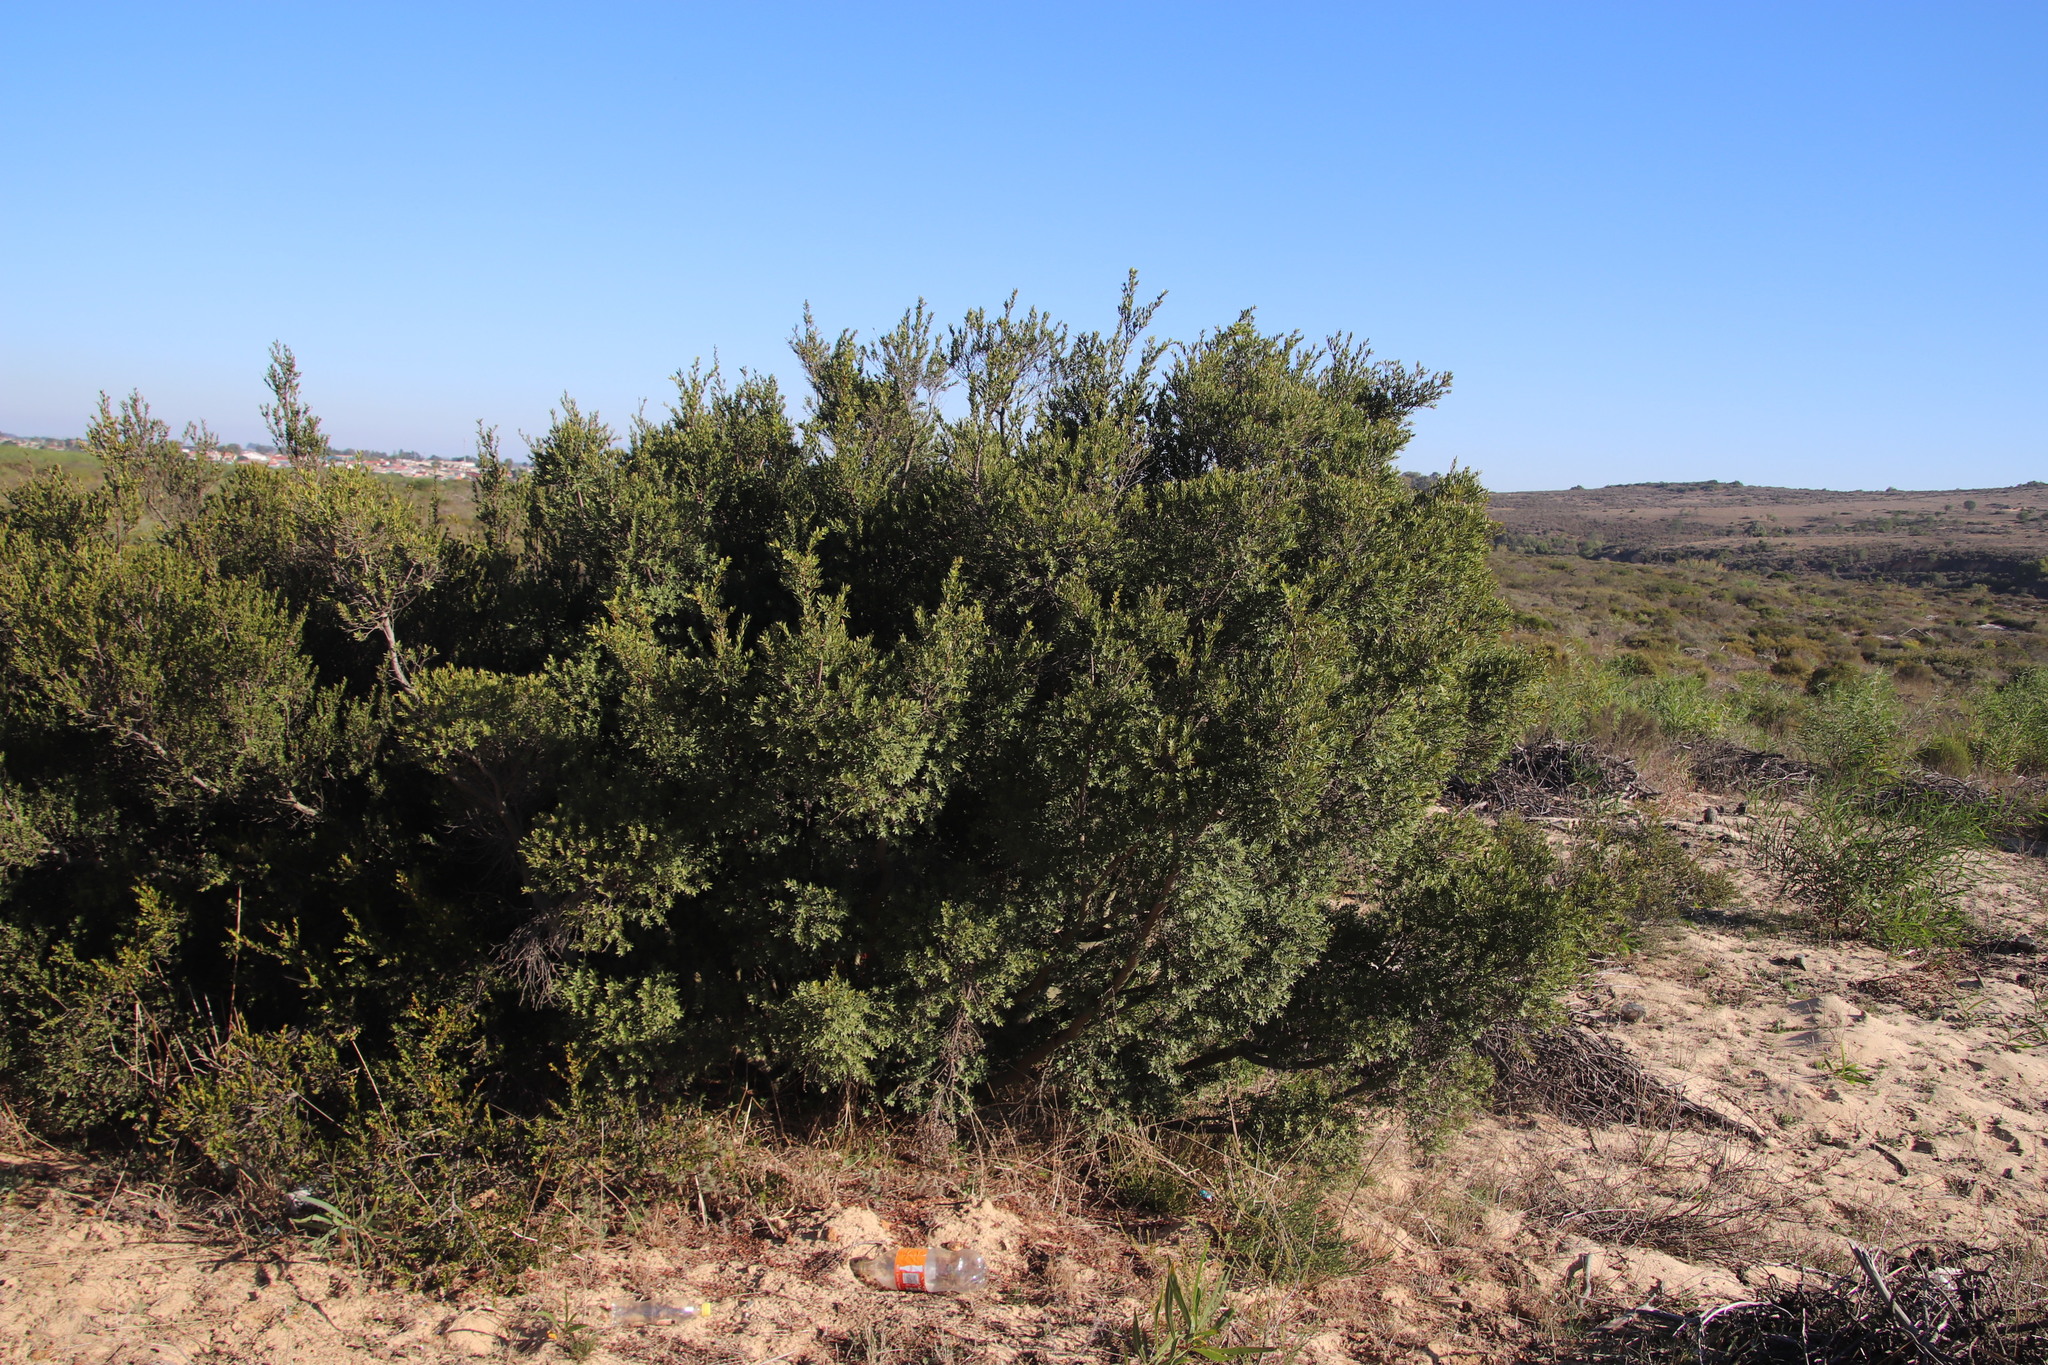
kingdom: Plantae
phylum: Tracheophyta
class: Magnoliopsida
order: Ericales
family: Ebenaceae
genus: Euclea
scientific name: Euclea racemosa
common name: Dune guarri
